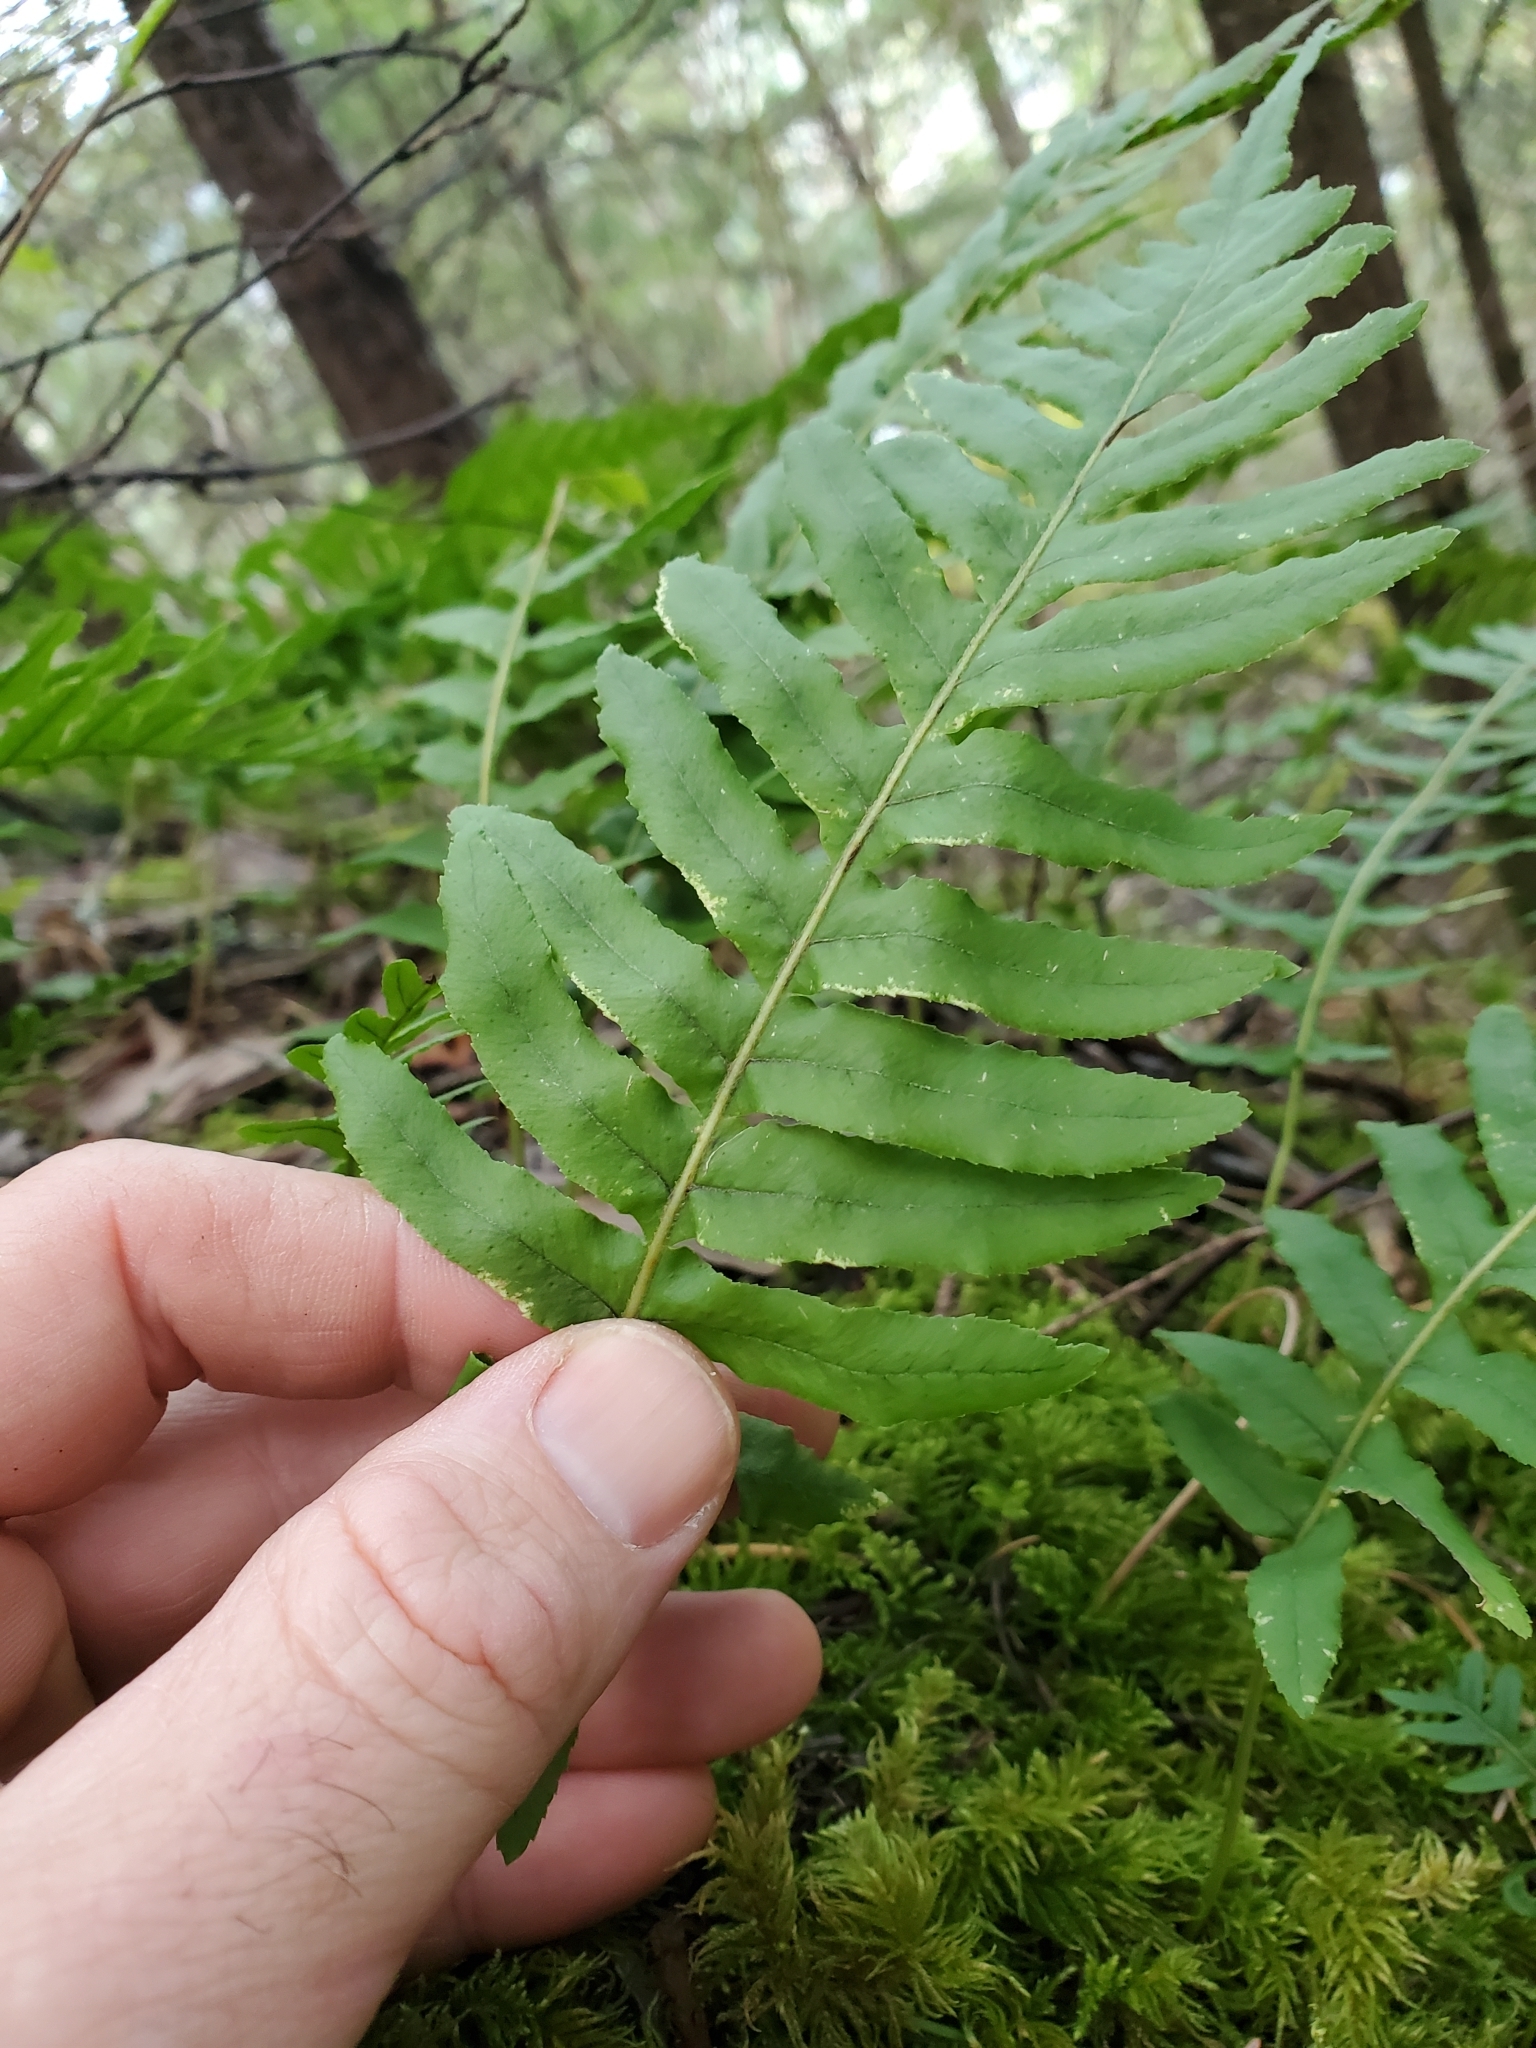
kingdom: Plantae
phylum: Tracheophyta
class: Polypodiopsida
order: Polypodiales
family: Polypodiaceae
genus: Polypodium
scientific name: Polypodium glycyrrhiza
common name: Licorice fern
